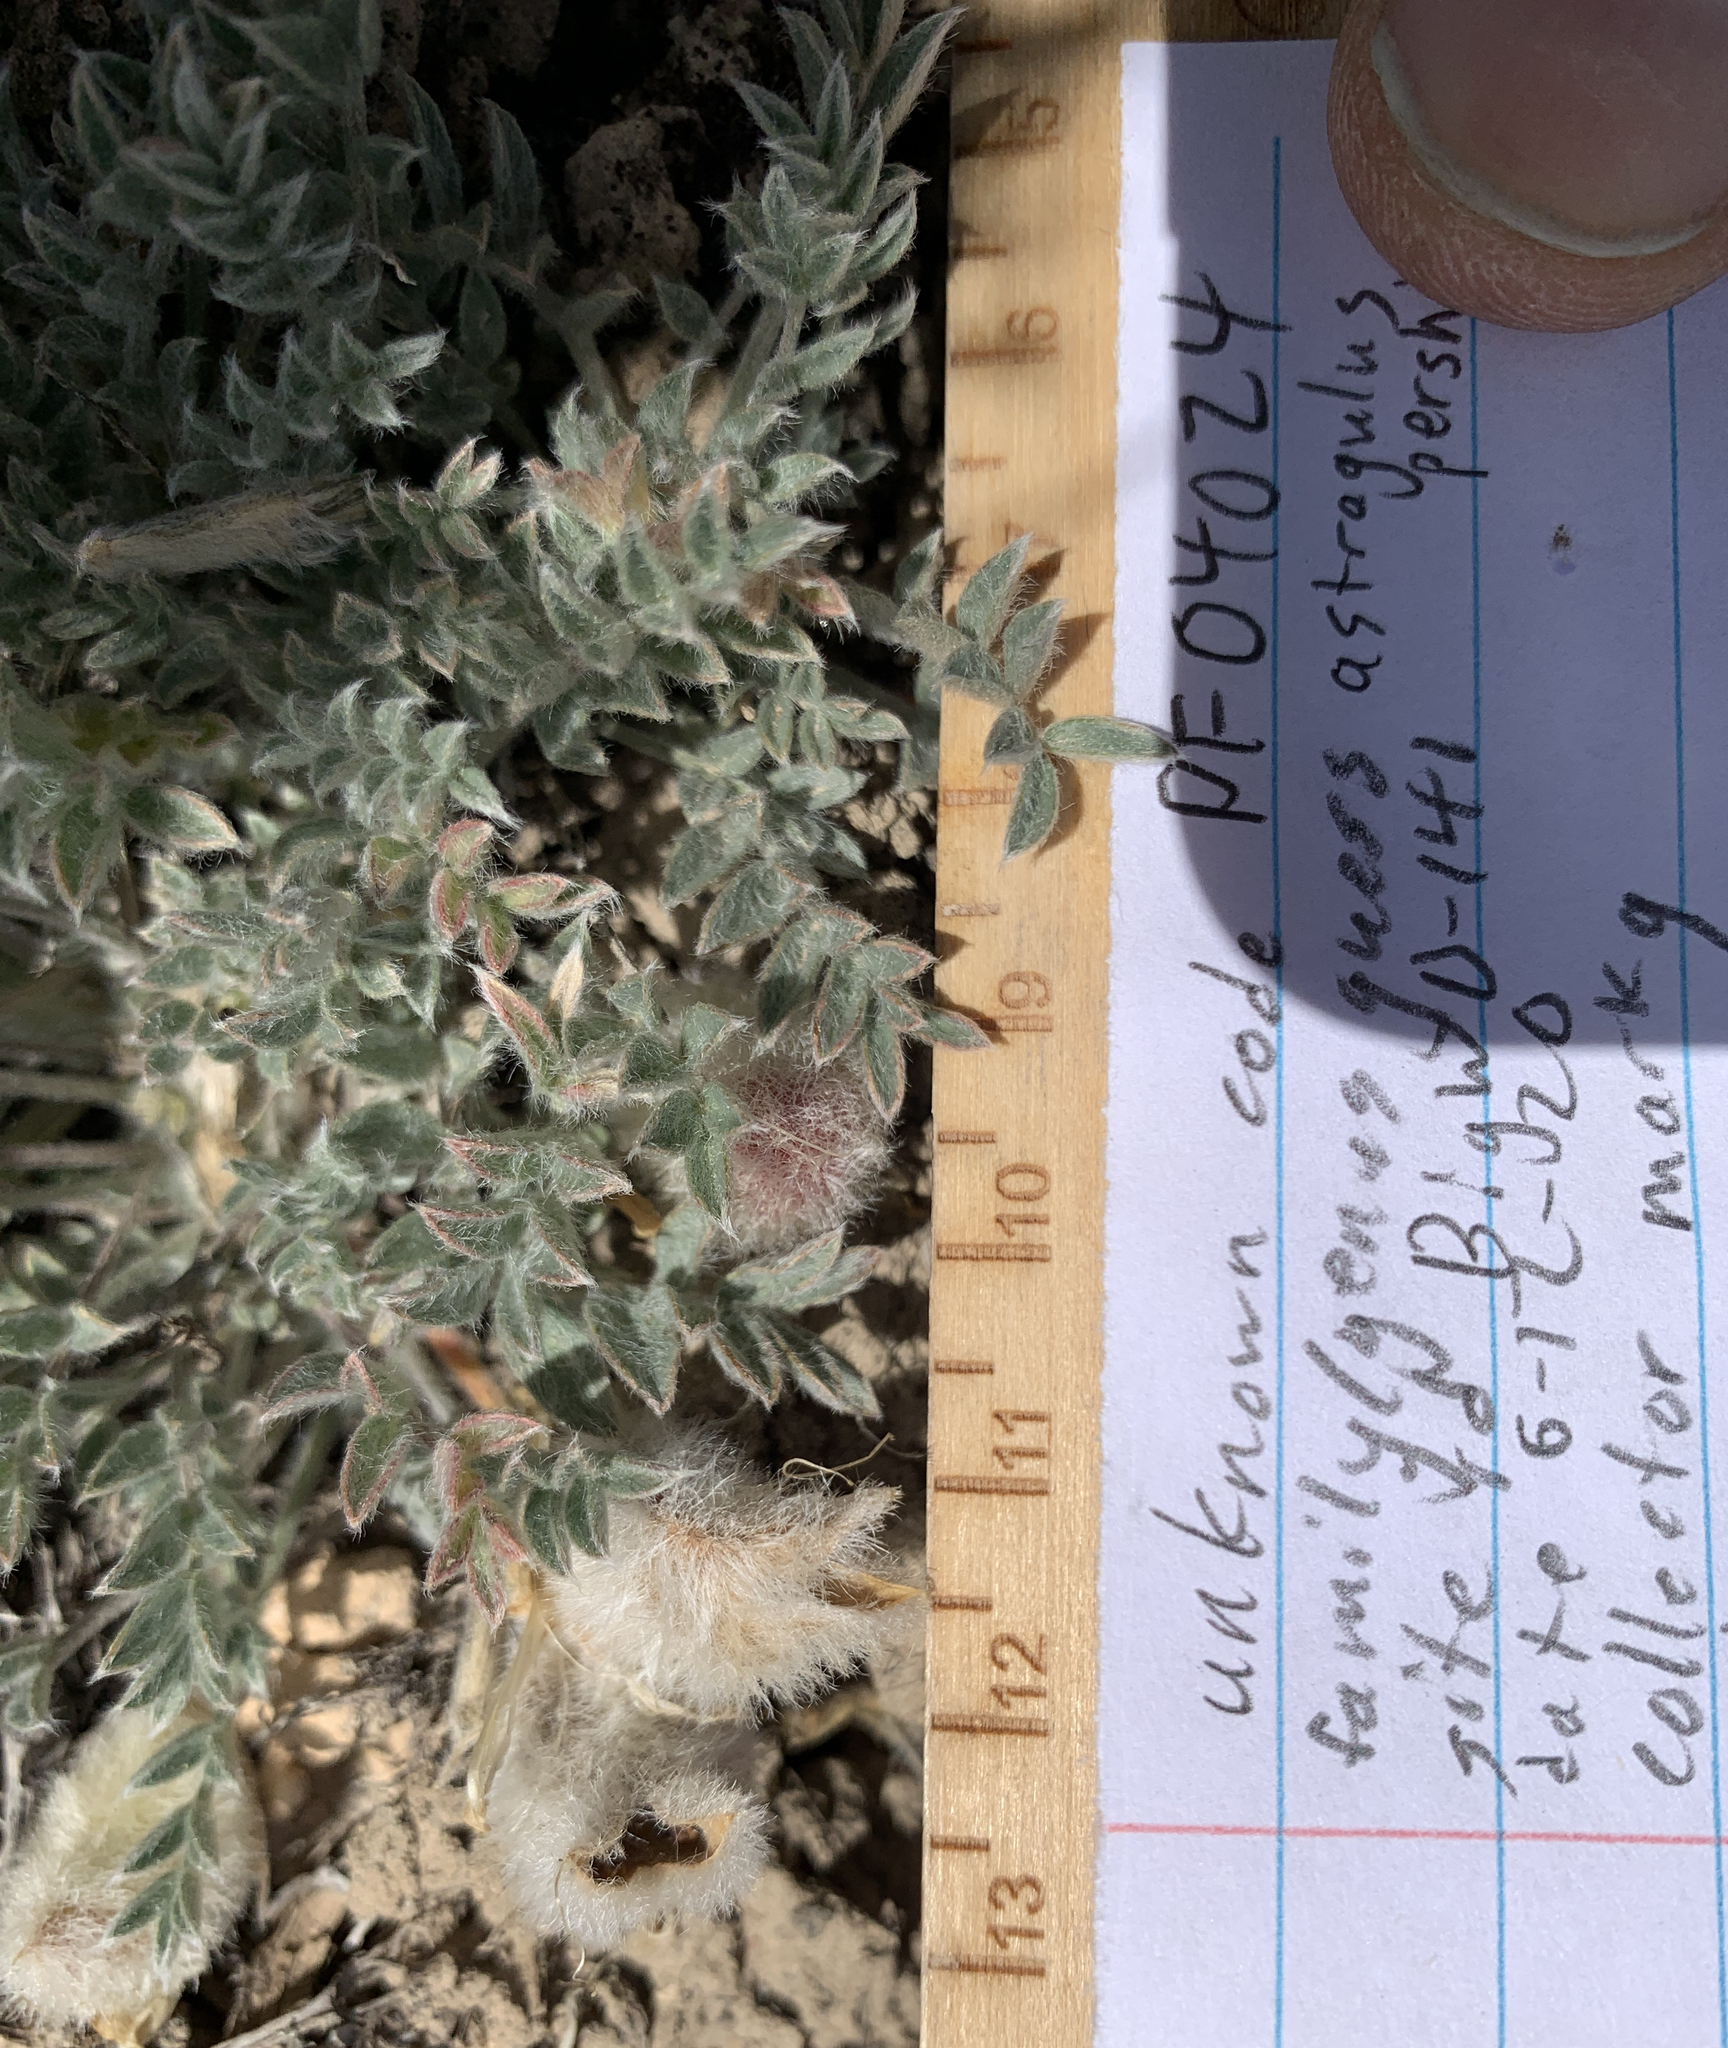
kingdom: Plantae
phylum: Tracheophyta
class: Magnoliopsida
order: Fabales
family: Fabaceae
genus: Astragalus
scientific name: Astragalus purshii
